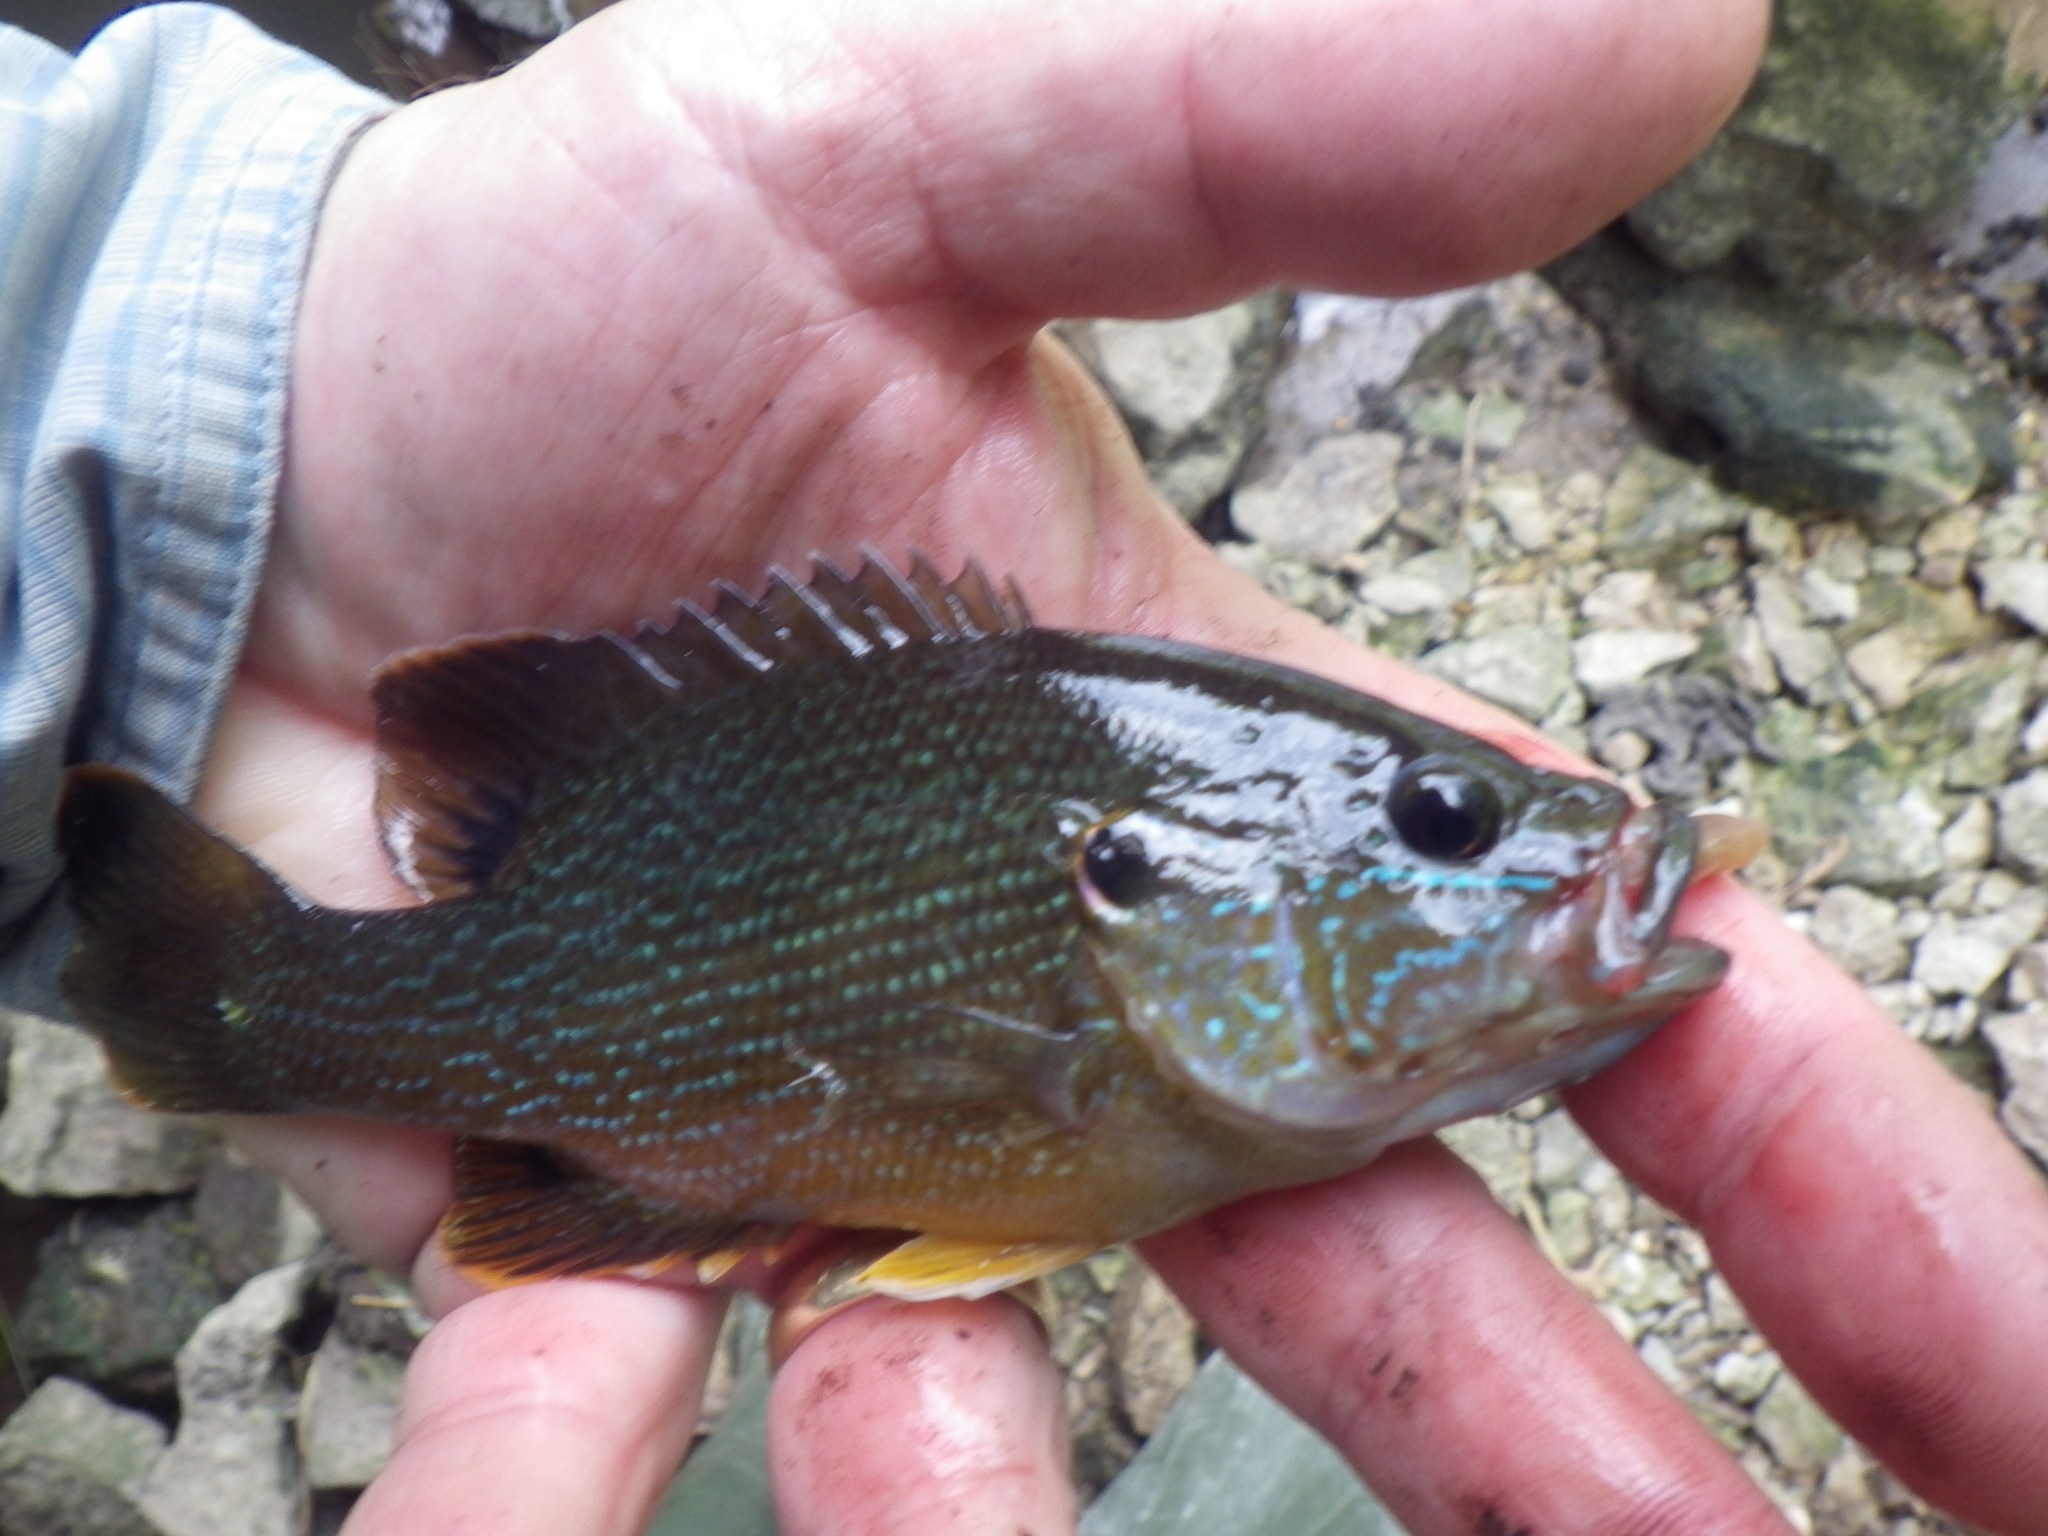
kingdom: Animalia
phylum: Chordata
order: Perciformes
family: Centrarchidae
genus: Lepomis
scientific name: Lepomis cyanellus
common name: Green sunfish
